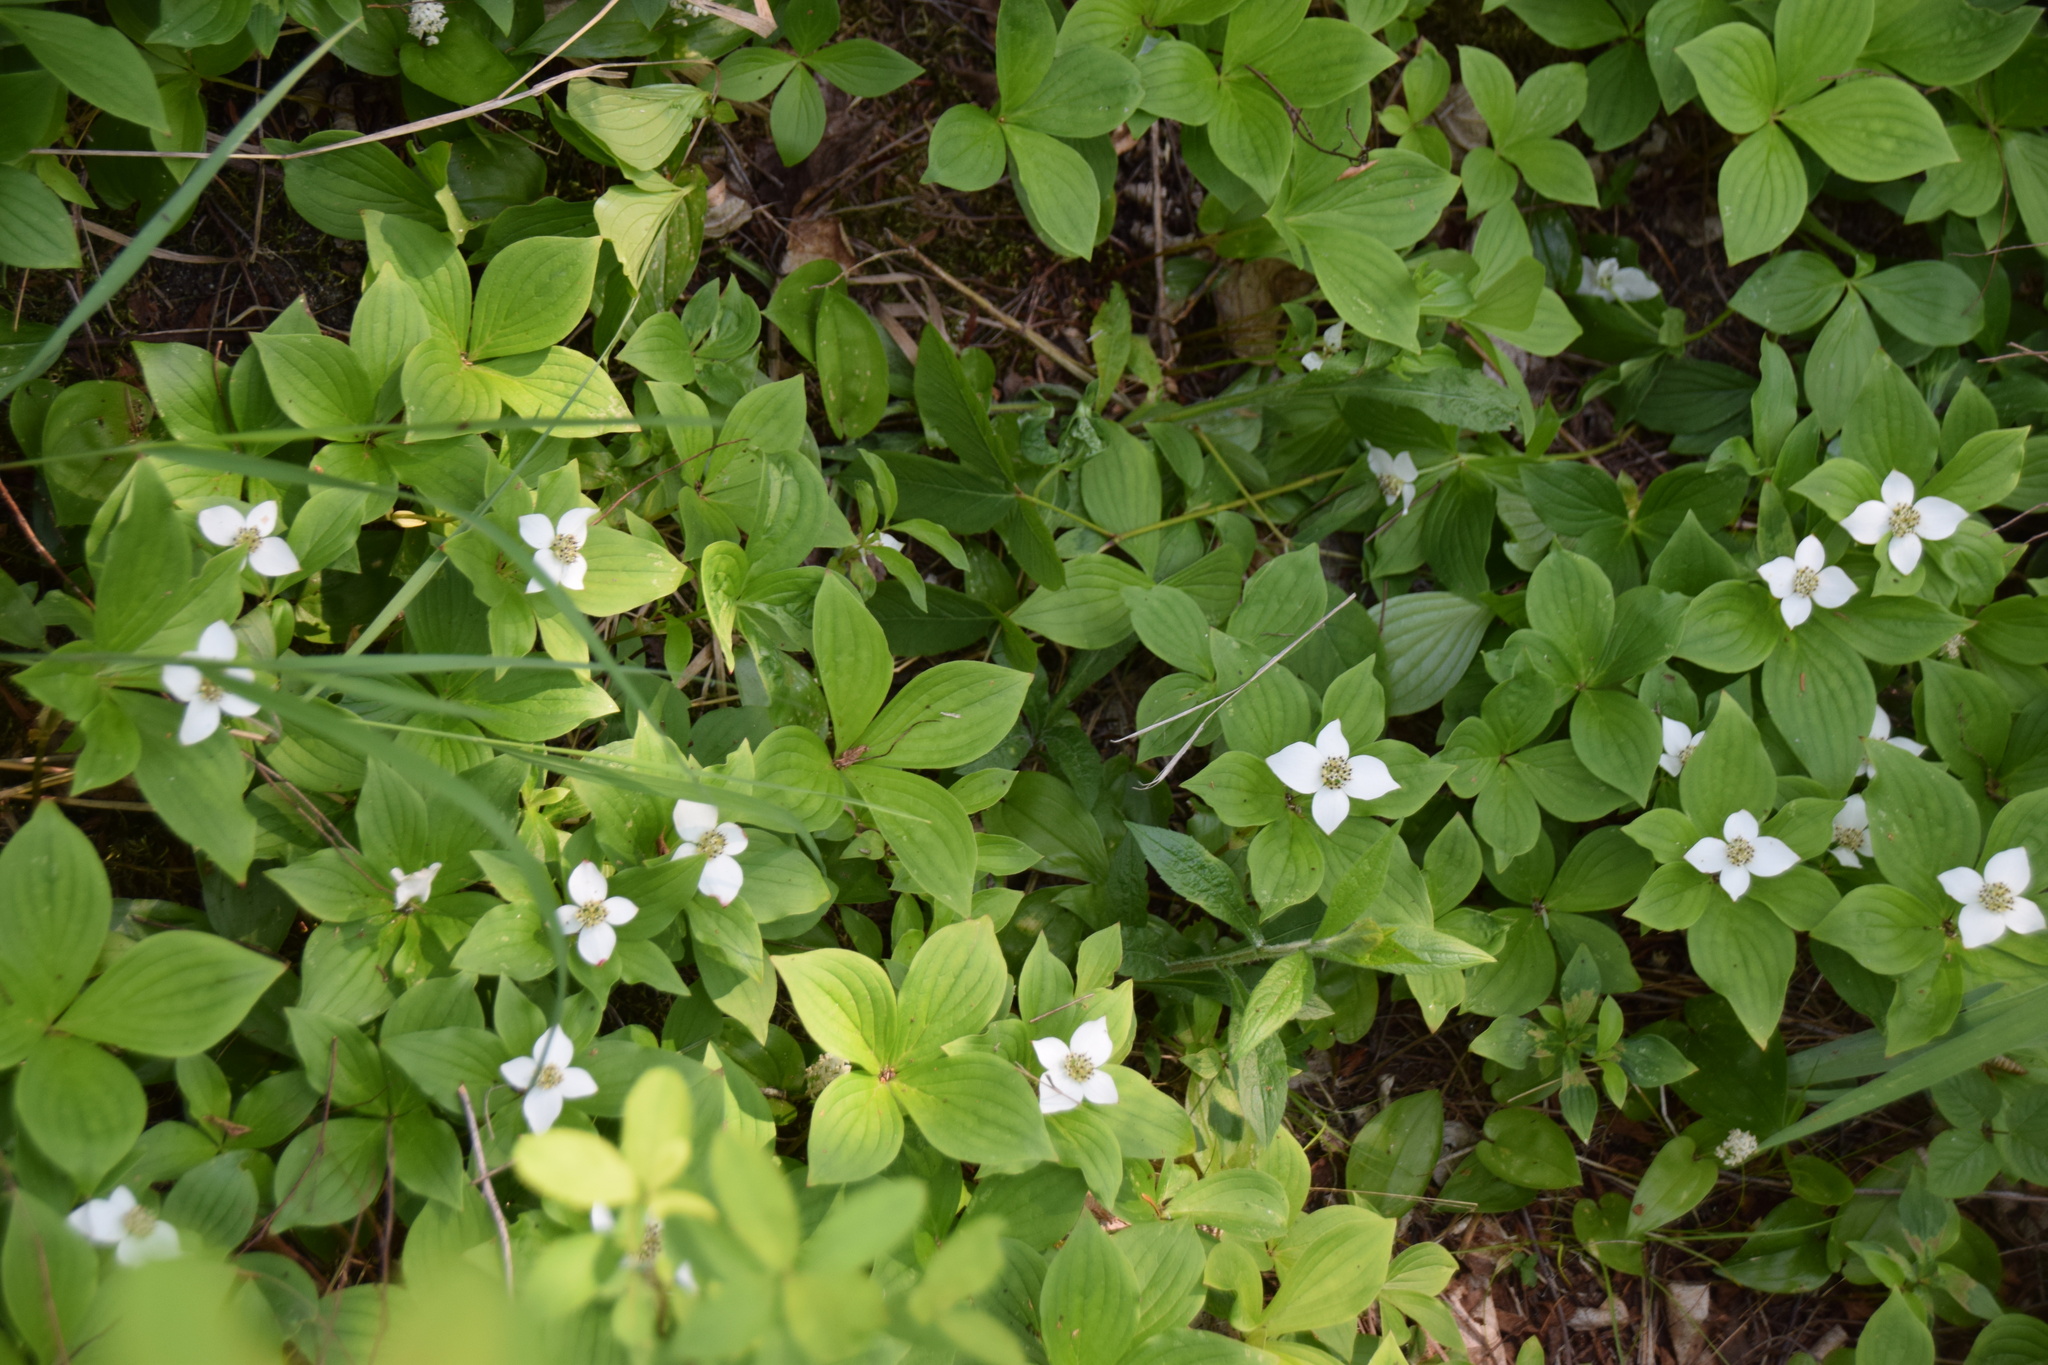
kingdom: Plantae
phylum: Tracheophyta
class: Magnoliopsida
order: Cornales
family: Cornaceae
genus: Cornus
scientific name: Cornus canadensis
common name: Creeping dogwood
